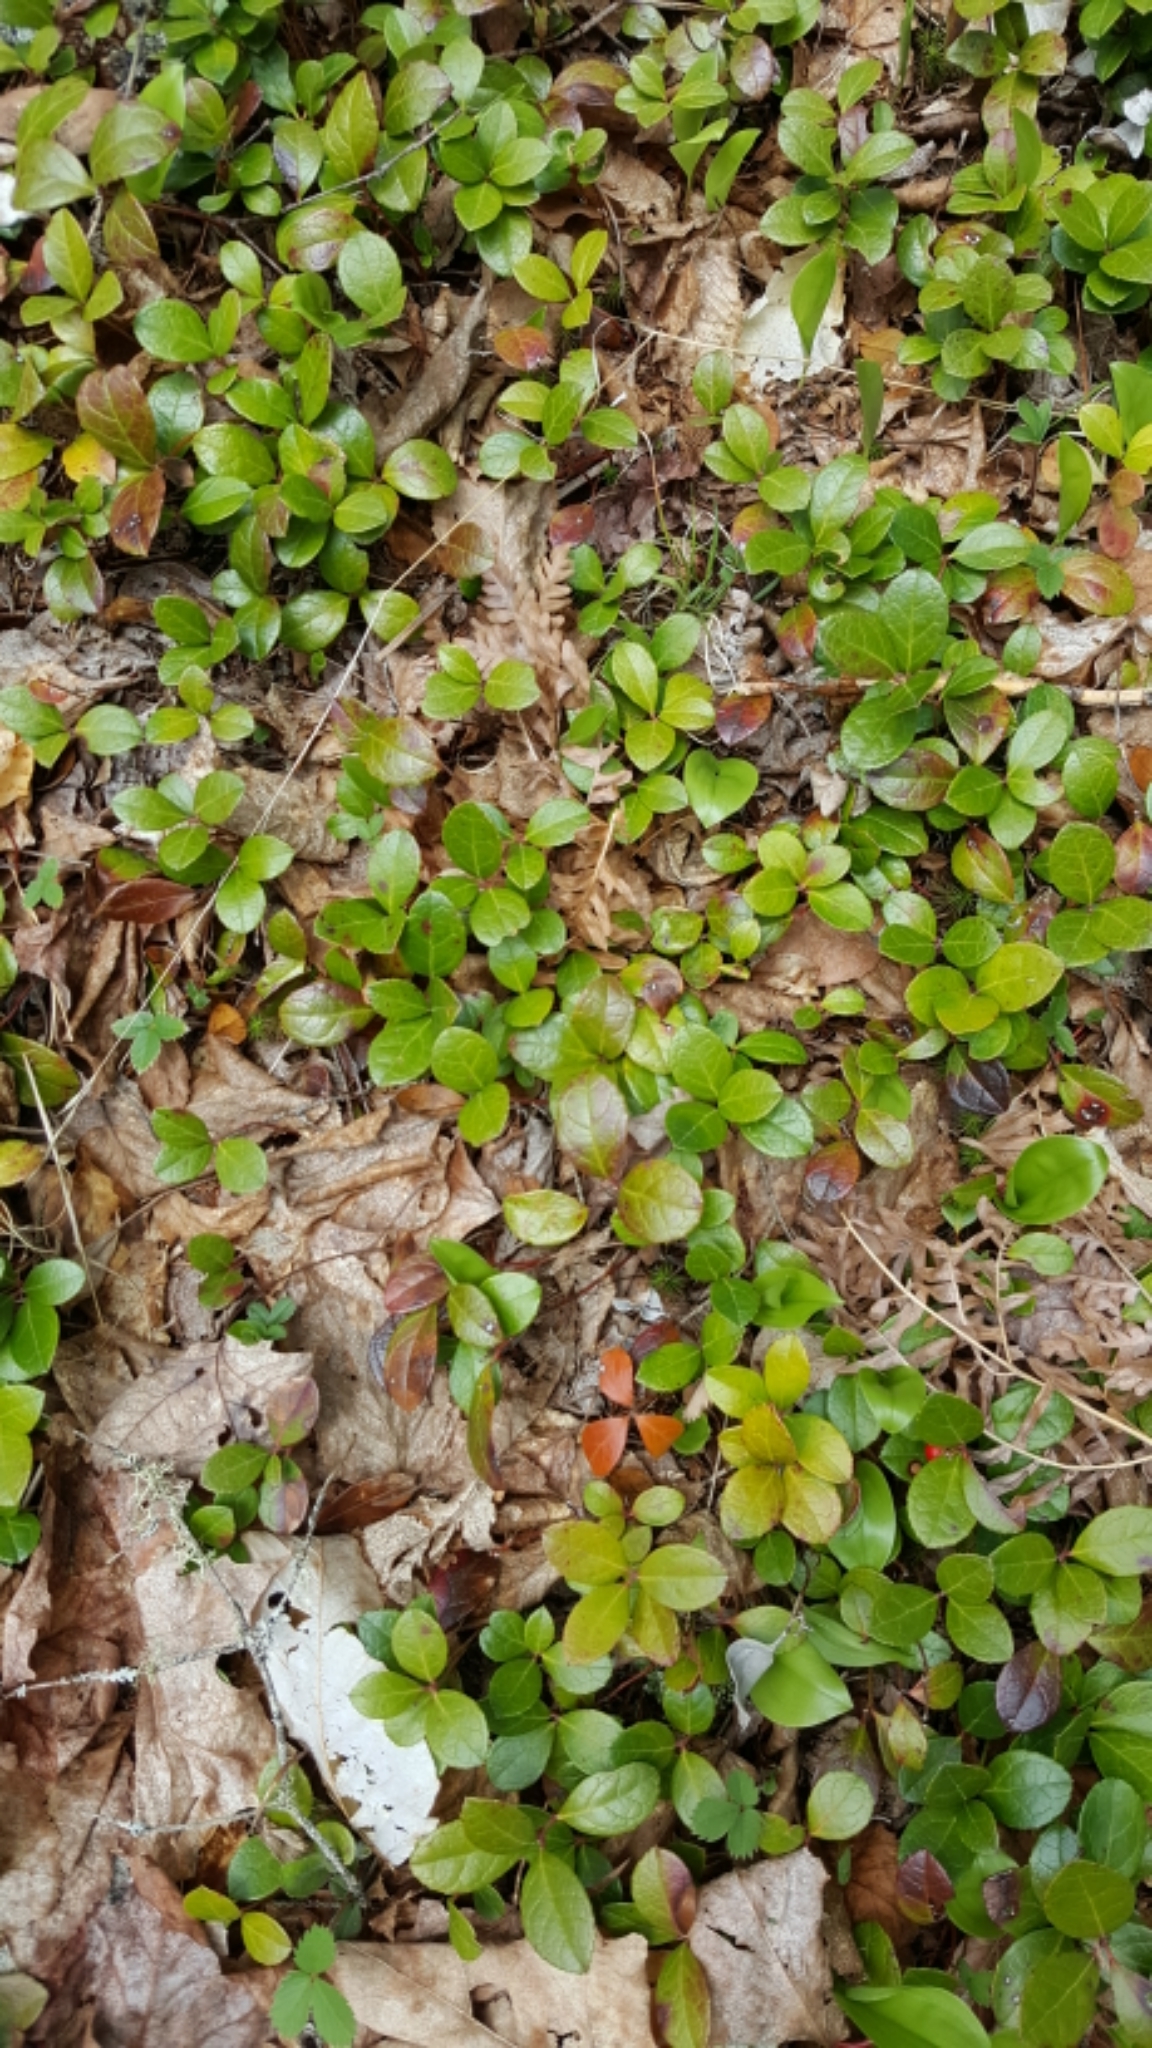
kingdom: Plantae
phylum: Tracheophyta
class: Magnoliopsida
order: Ericales
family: Ericaceae
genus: Gaultheria
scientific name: Gaultheria procumbens
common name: Checkerberry
